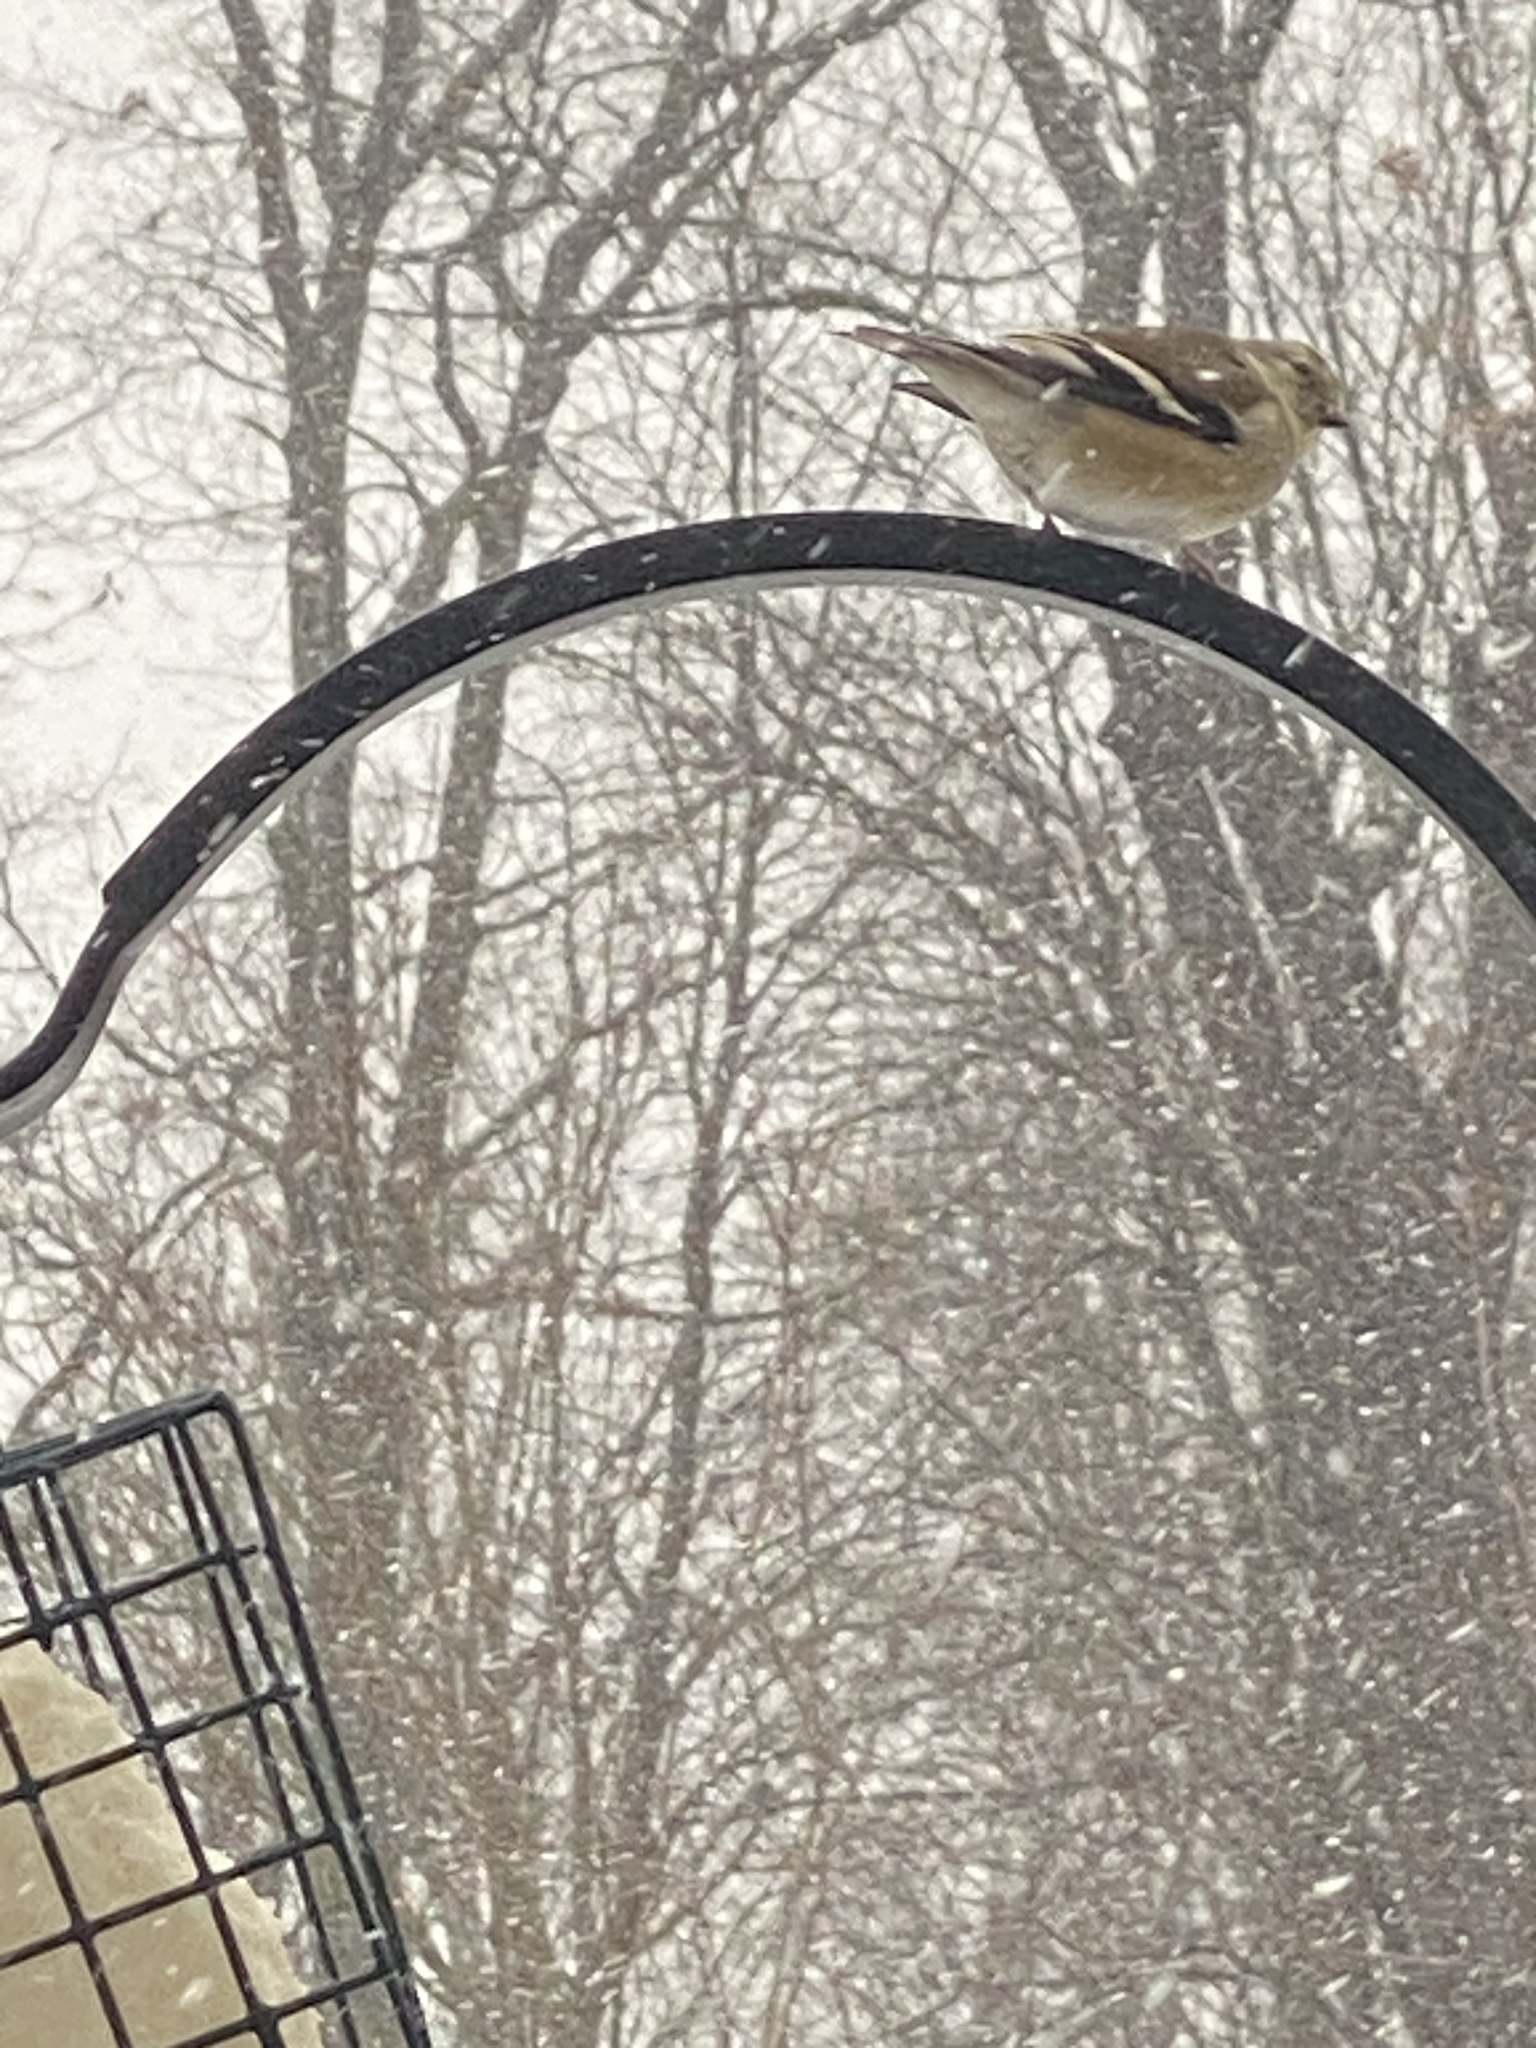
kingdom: Animalia
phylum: Chordata
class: Aves
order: Passeriformes
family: Fringillidae
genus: Spinus
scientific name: Spinus tristis
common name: American goldfinch
